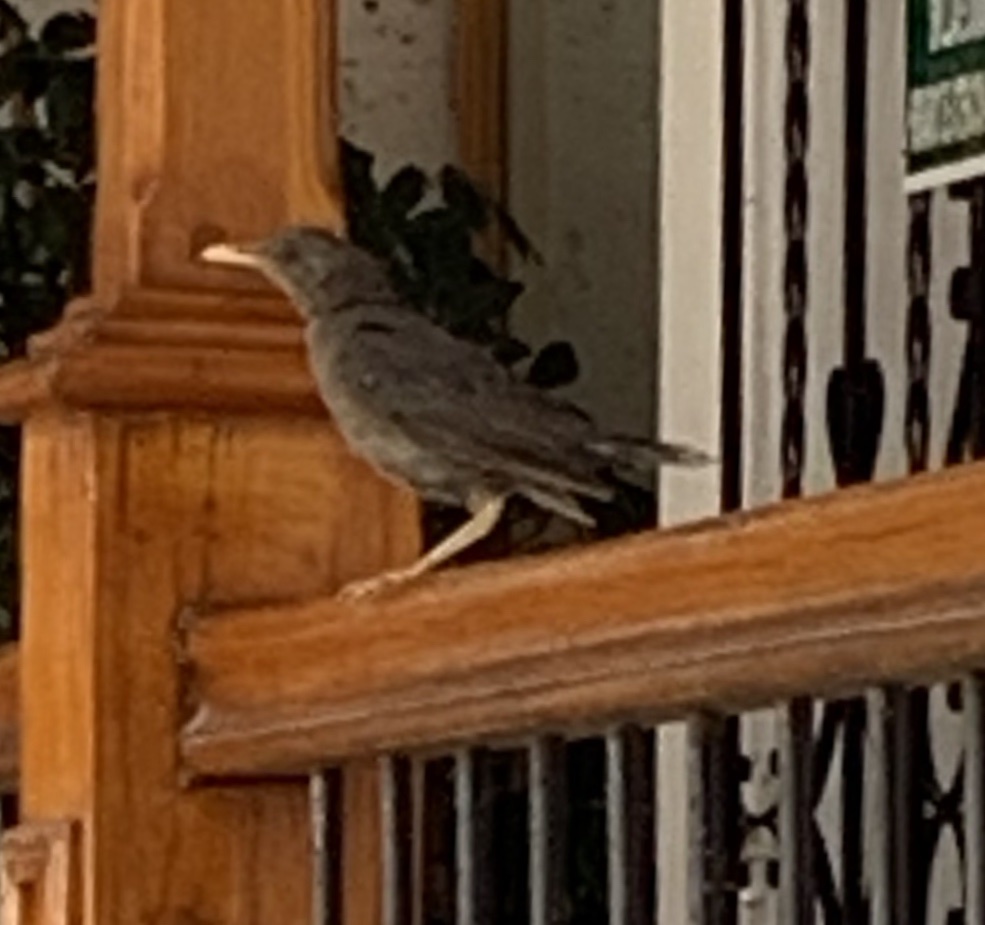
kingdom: Animalia
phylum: Chordata
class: Aves
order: Passeriformes
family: Turdidae
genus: Turdus
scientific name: Turdus chiguanco
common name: Chiguanco thrush
